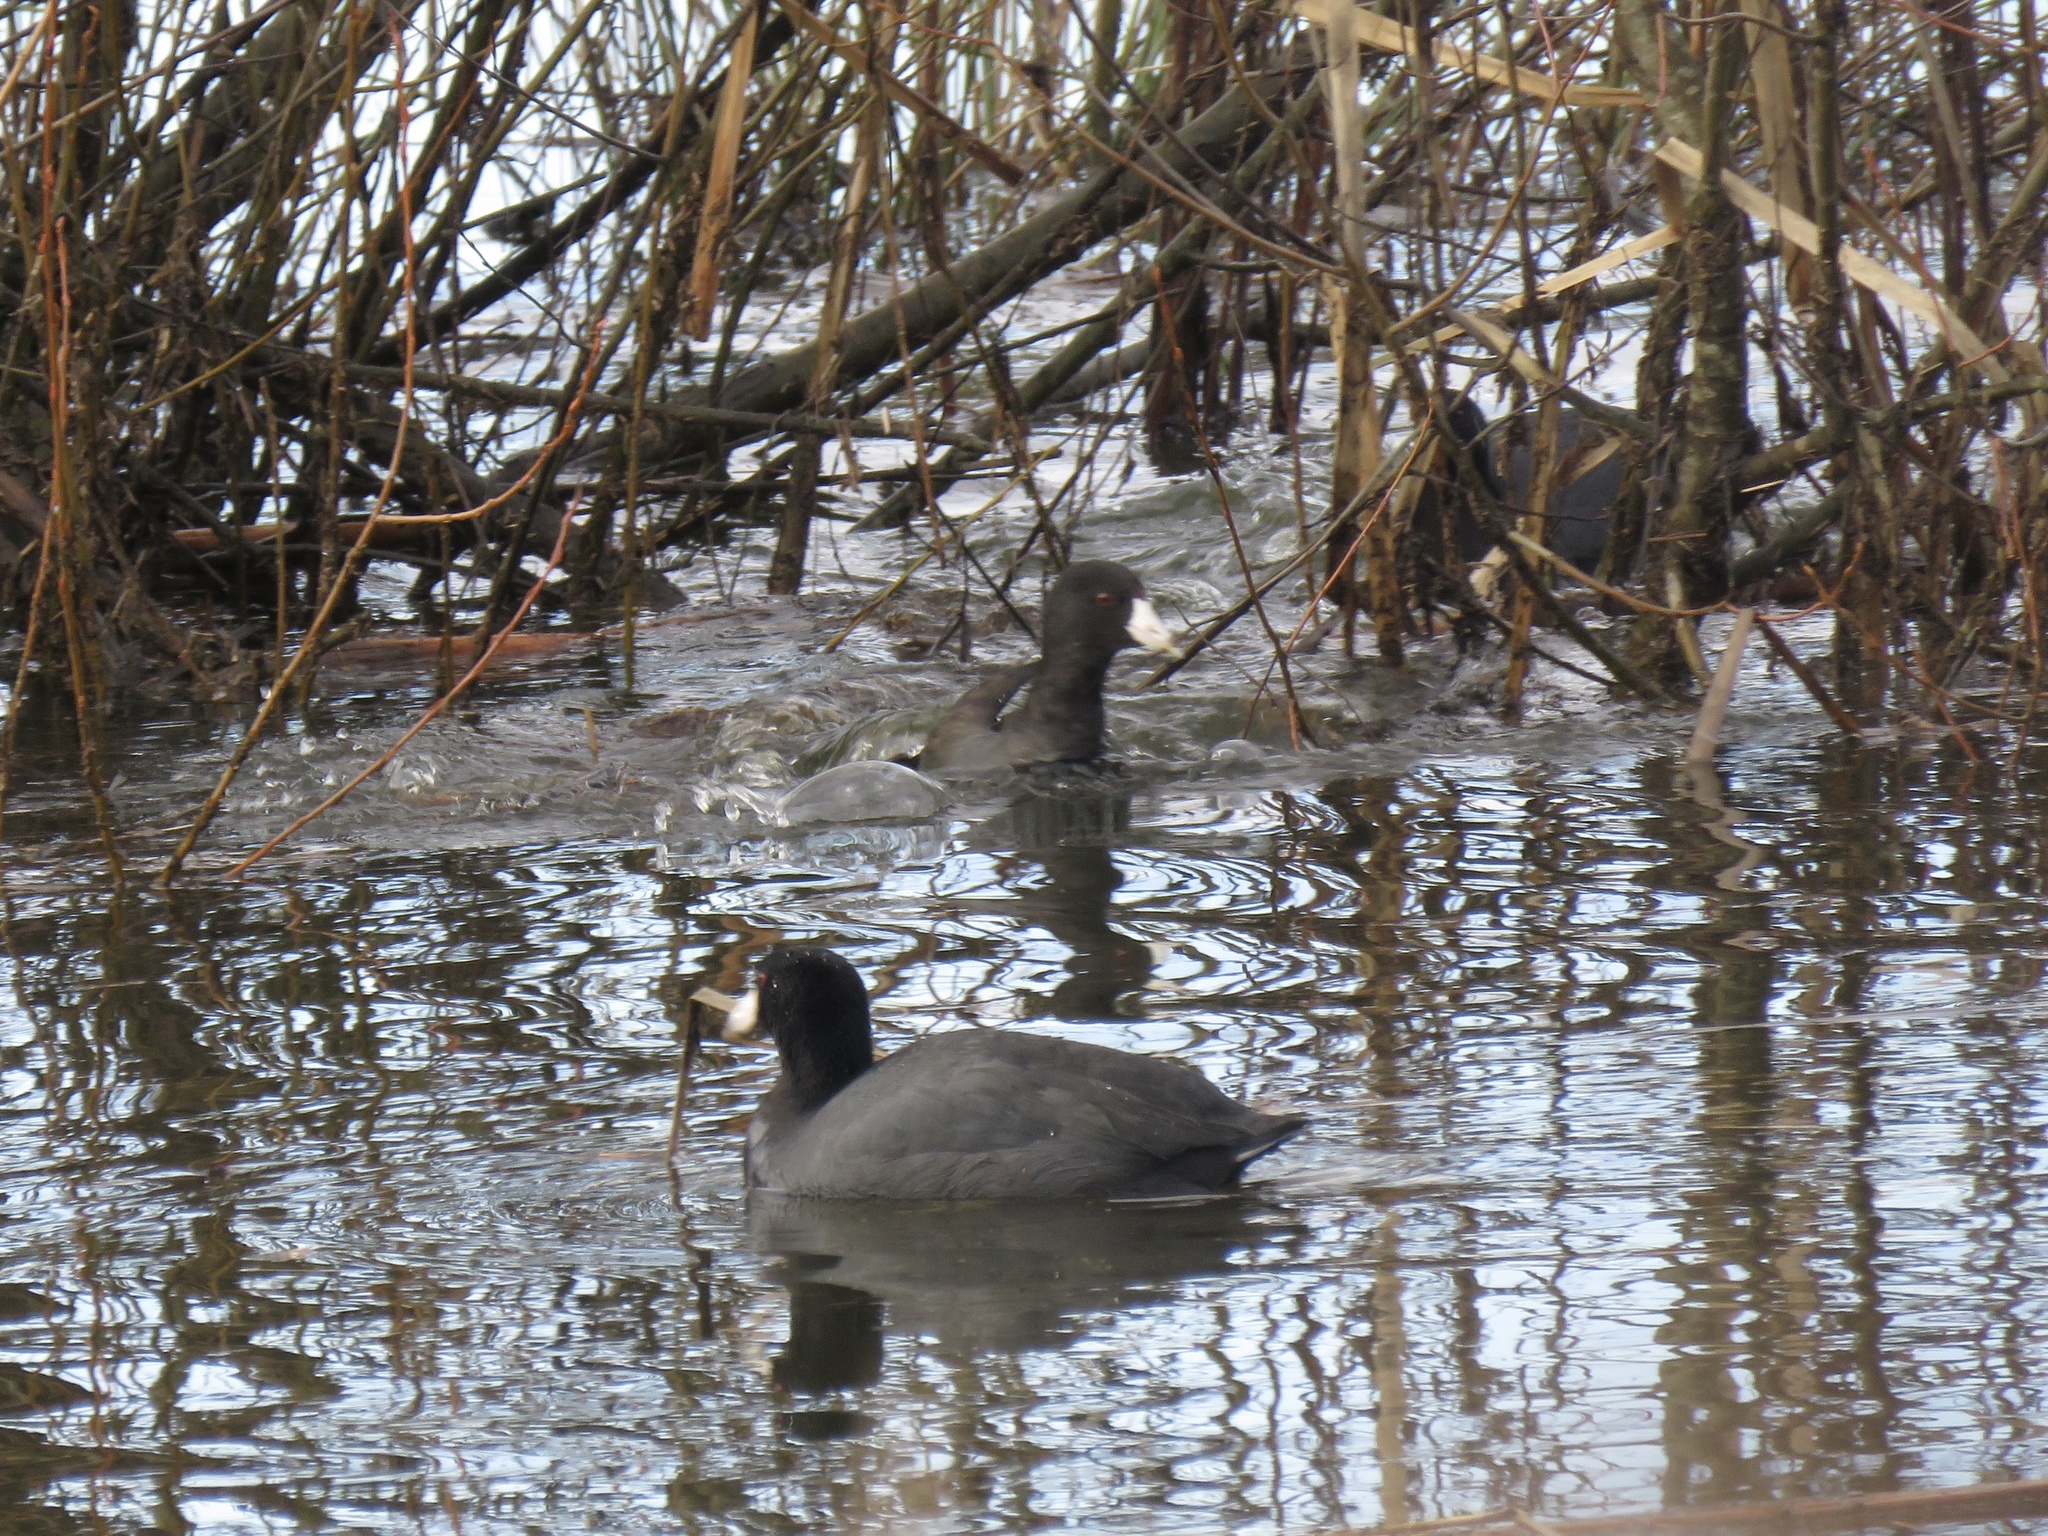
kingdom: Animalia
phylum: Chordata
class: Aves
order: Gruiformes
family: Rallidae
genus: Fulica
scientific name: Fulica americana
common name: American coot
